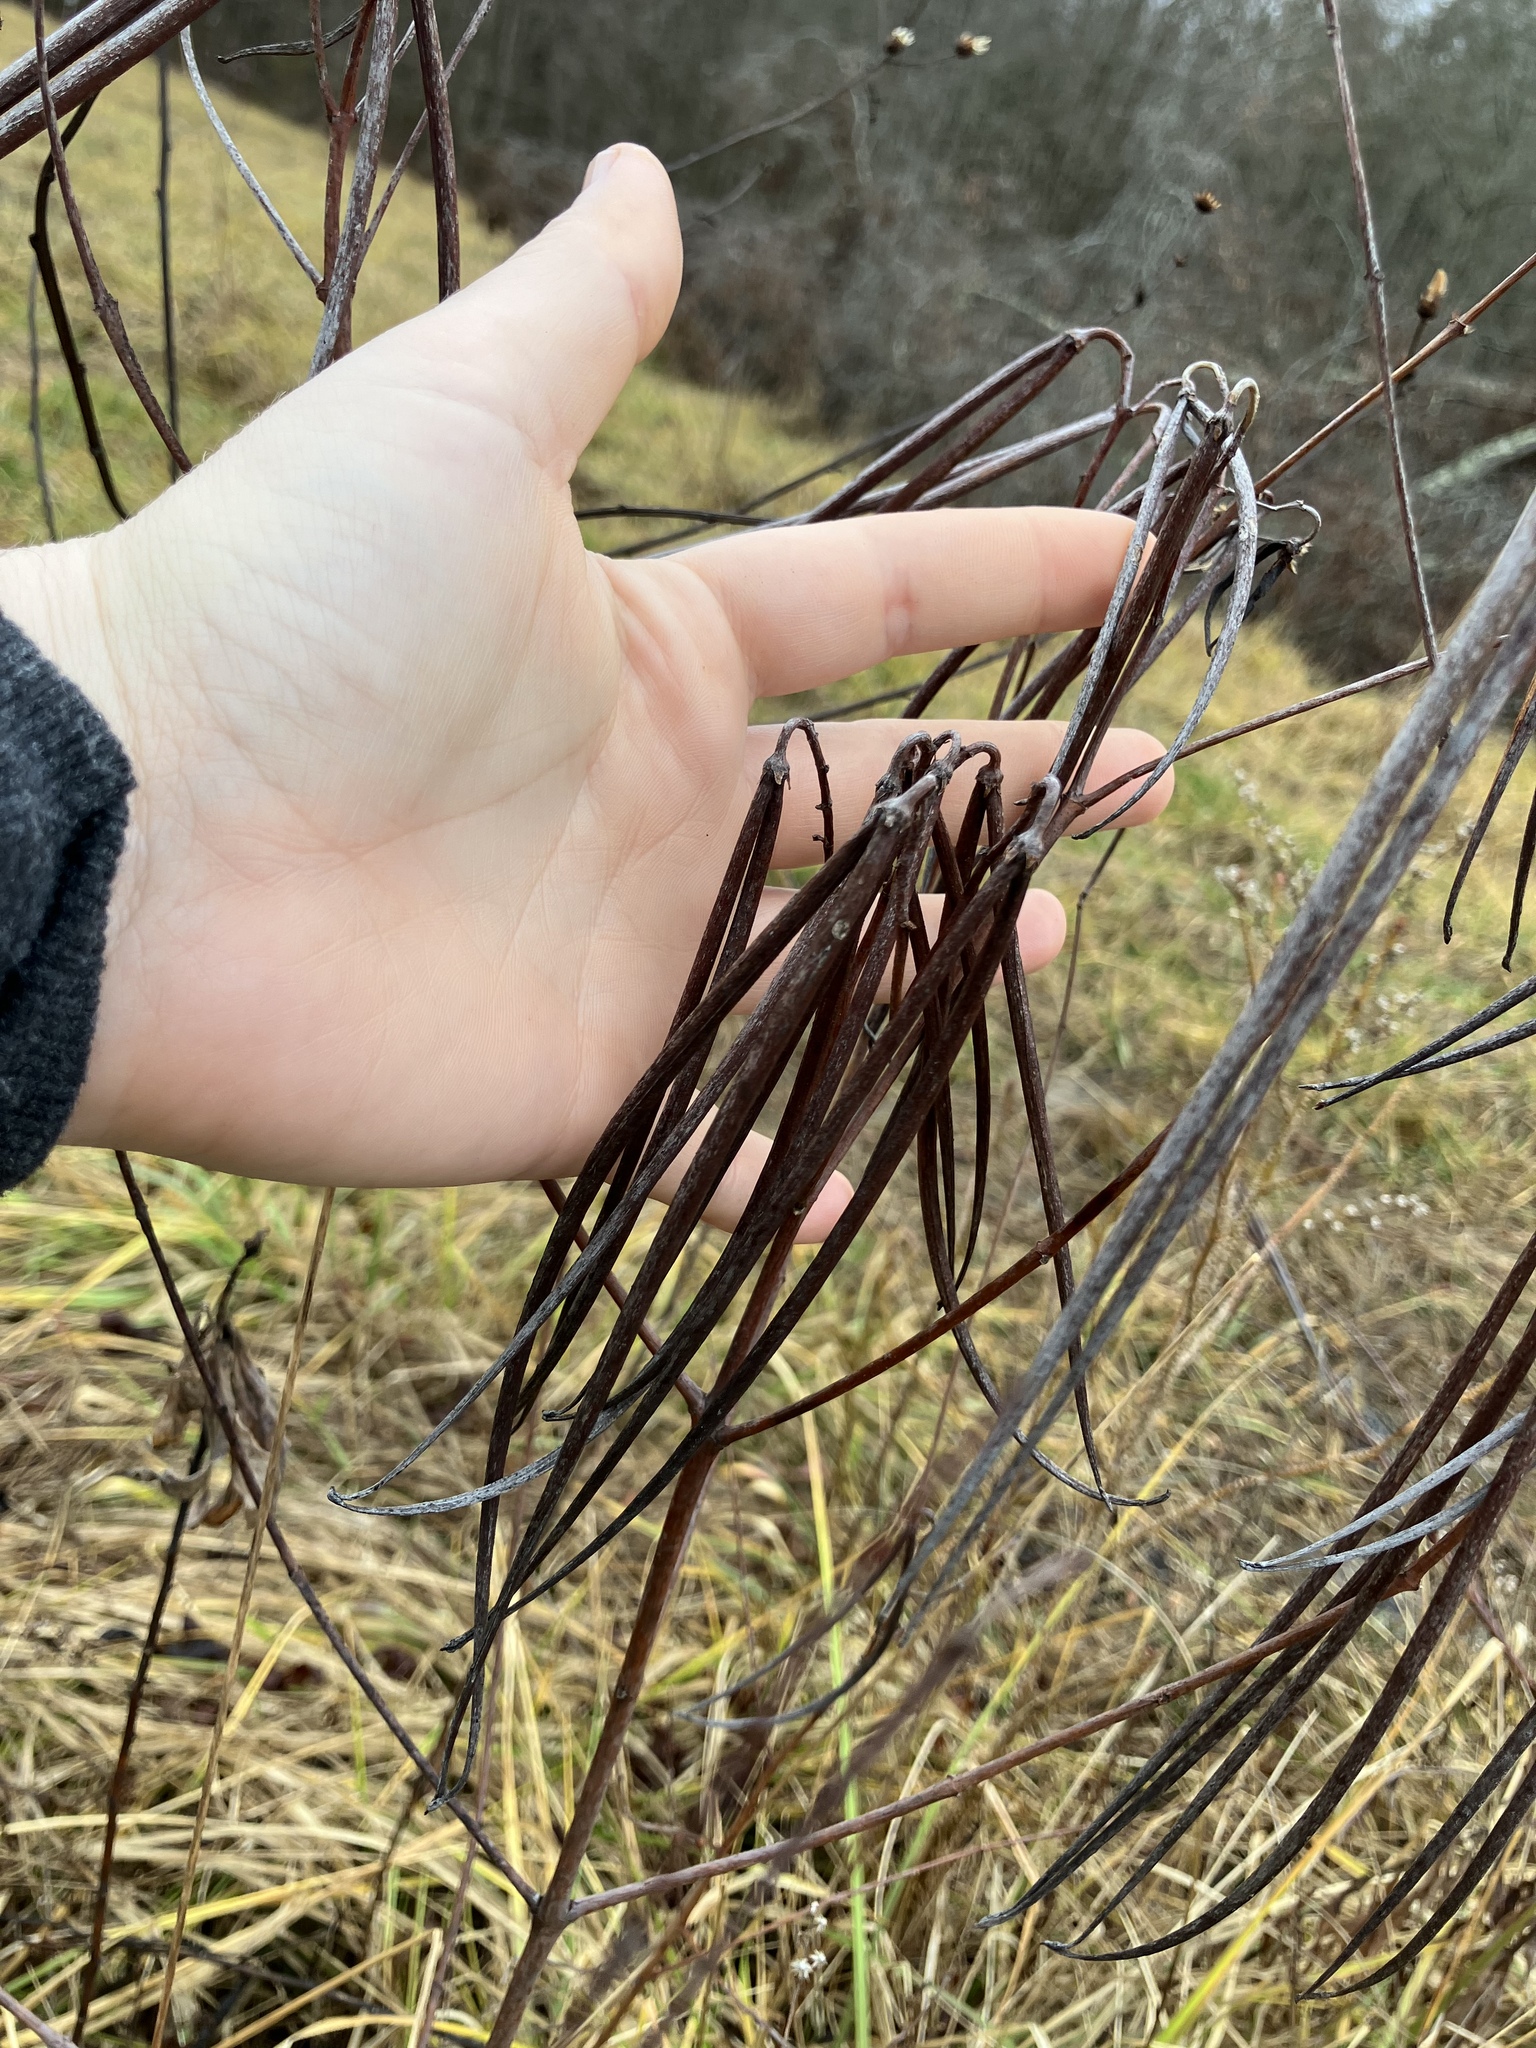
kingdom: Plantae
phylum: Tracheophyta
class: Magnoliopsida
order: Gentianales
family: Apocynaceae
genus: Apocynum
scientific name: Apocynum cannabinum
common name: Hemp dogbane
